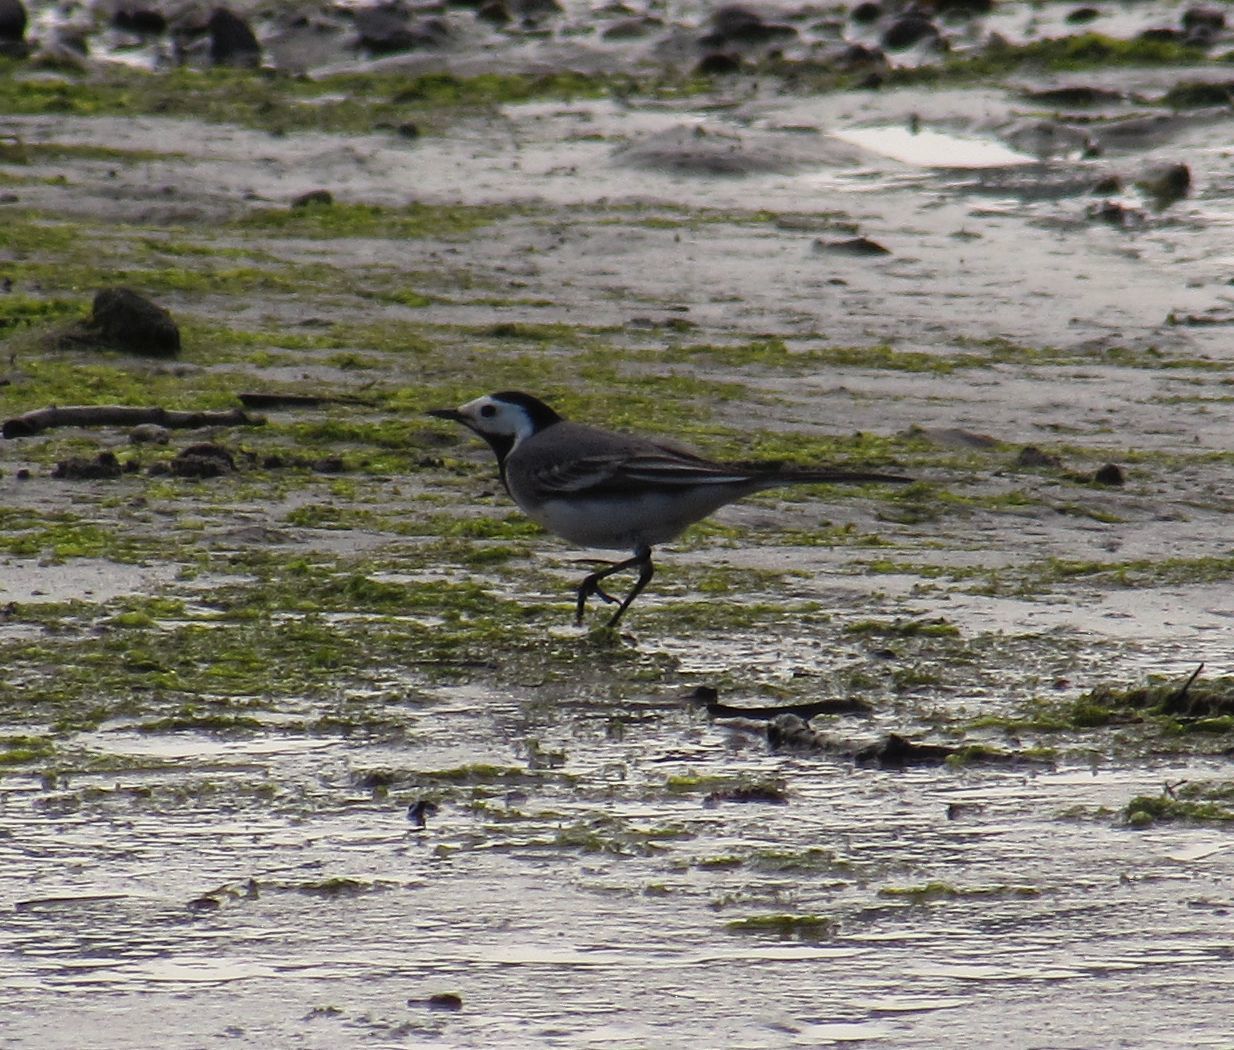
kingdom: Animalia
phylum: Chordata
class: Aves
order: Passeriformes
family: Motacillidae
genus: Motacilla
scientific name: Motacilla alba
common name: White wagtail
